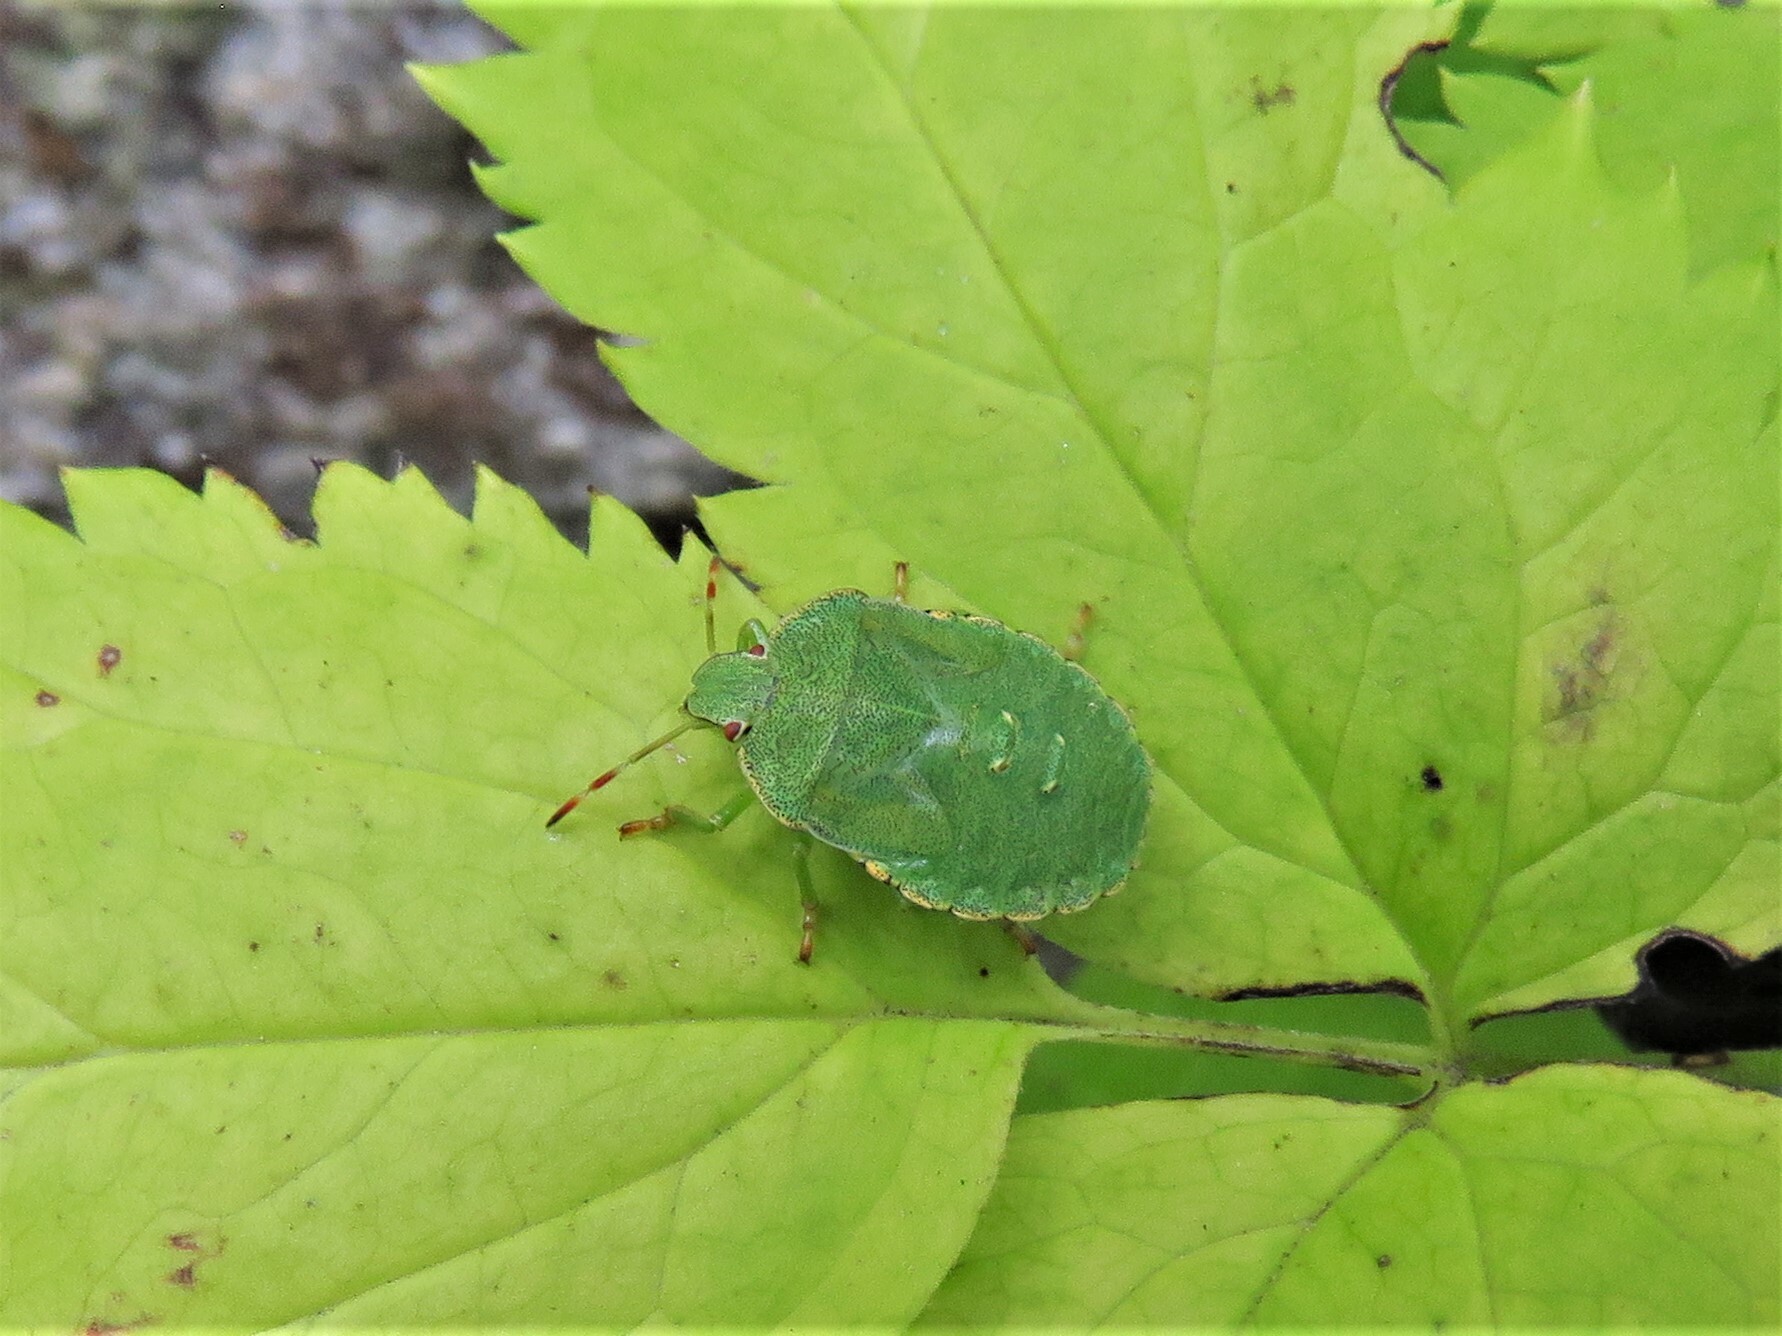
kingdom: Animalia
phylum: Arthropoda
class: Insecta
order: Hemiptera
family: Pentatomidae
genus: Palomena
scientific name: Palomena prasina
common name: Green shieldbug
